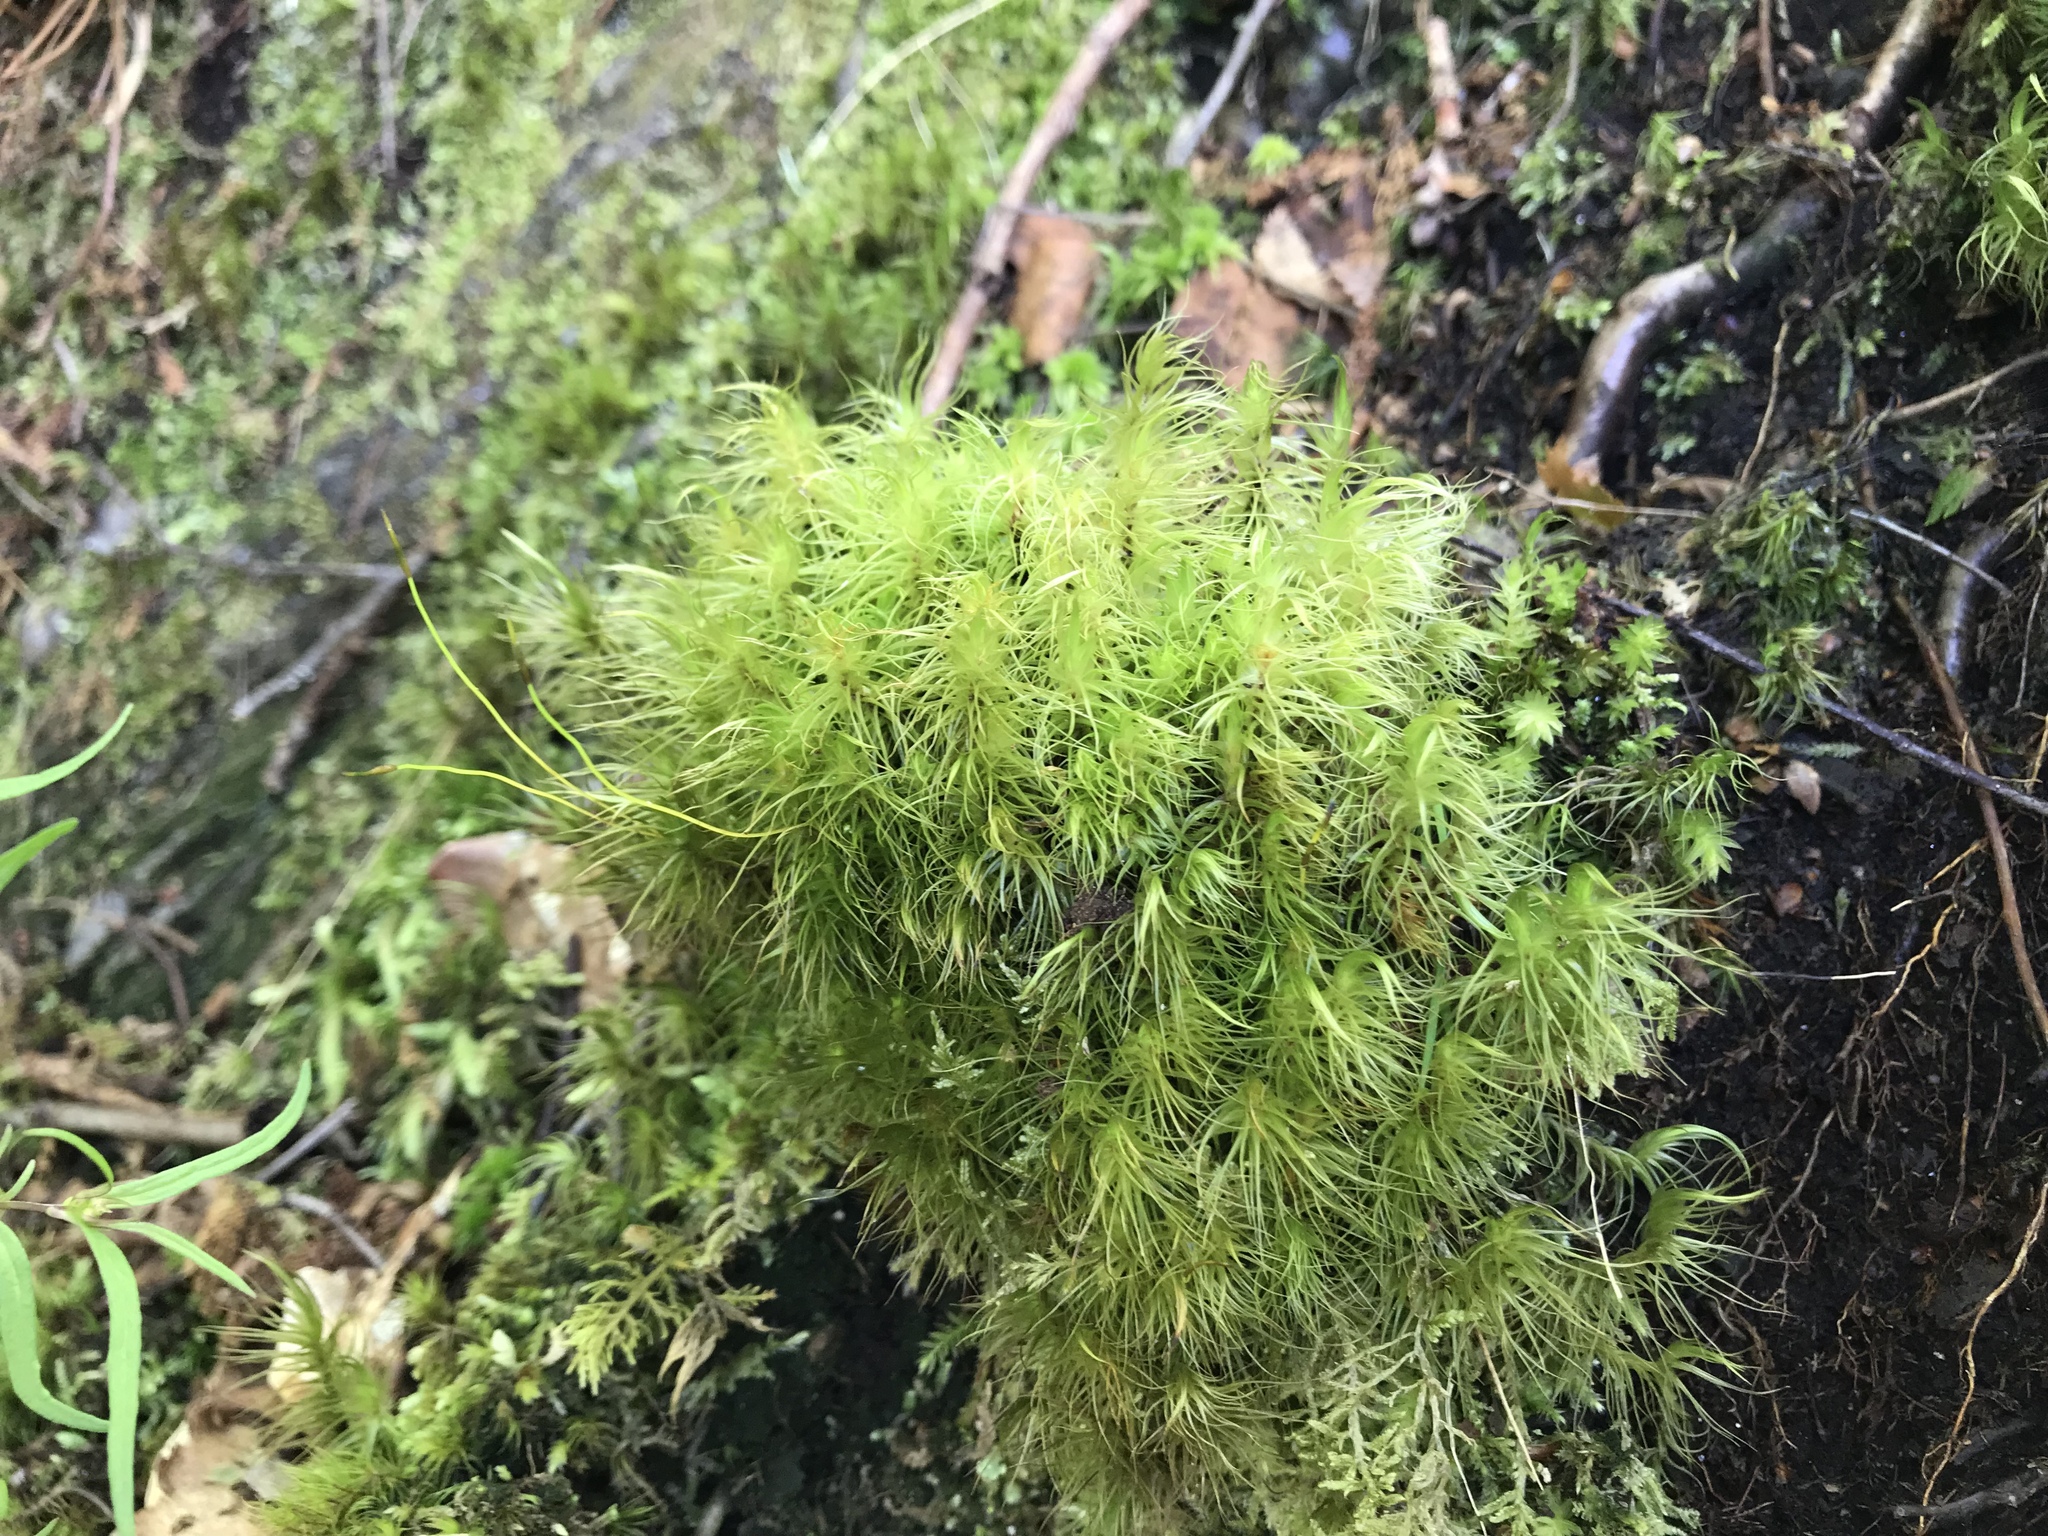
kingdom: Plantae
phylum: Bryophyta
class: Bryopsida
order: Dicranales
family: Dicranaceae
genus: Dicranum
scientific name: Dicranum majus
